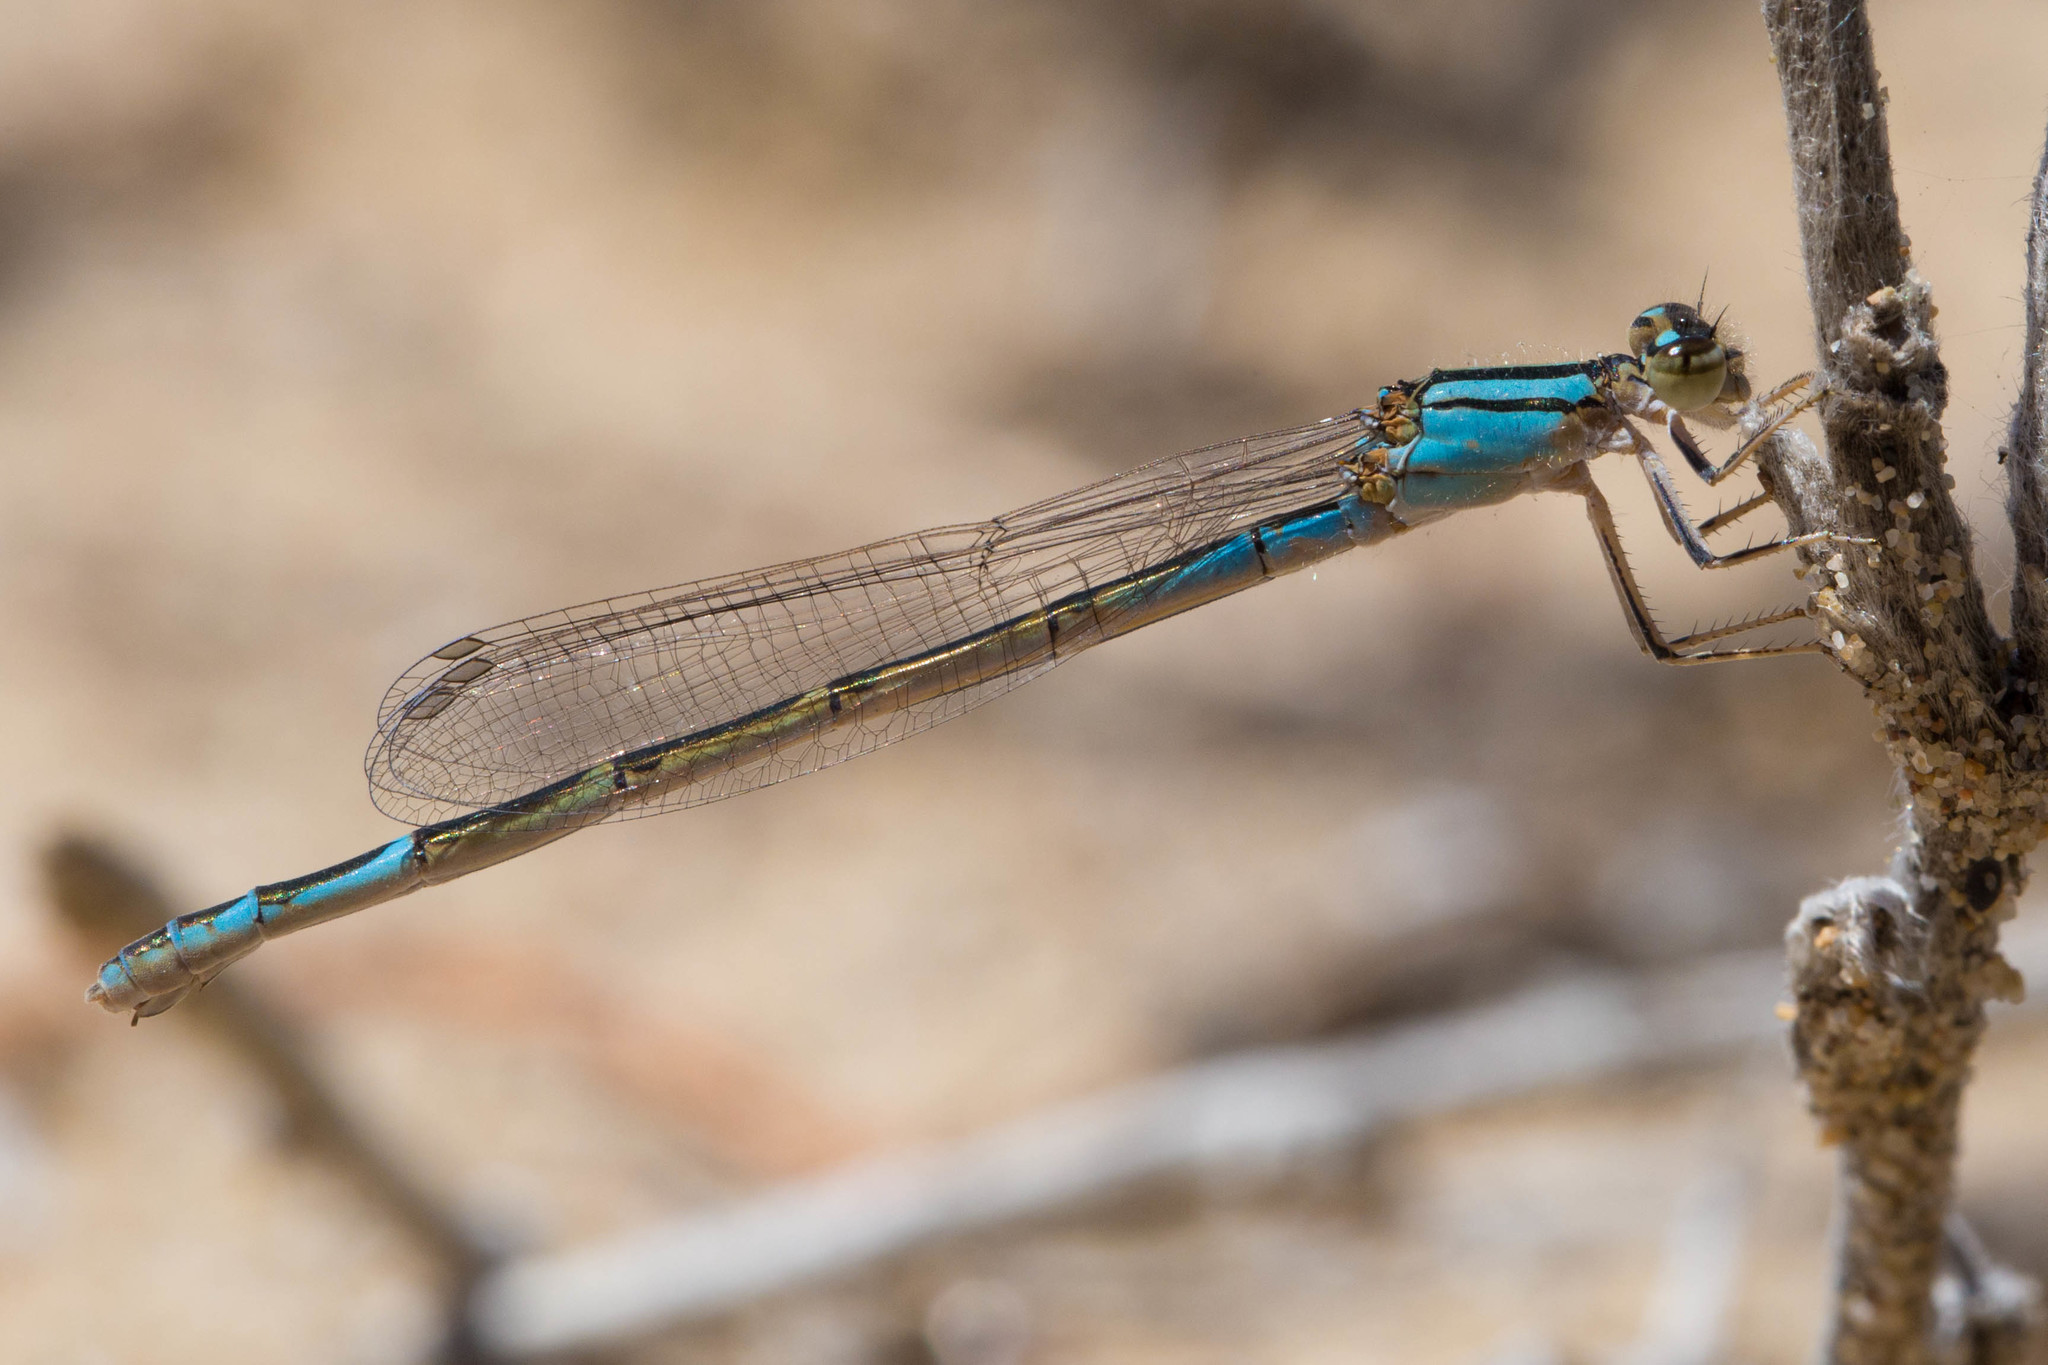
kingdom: Animalia
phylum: Arthropoda
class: Insecta
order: Odonata
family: Coenagrionidae
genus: Enallagma
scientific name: Enallagma
